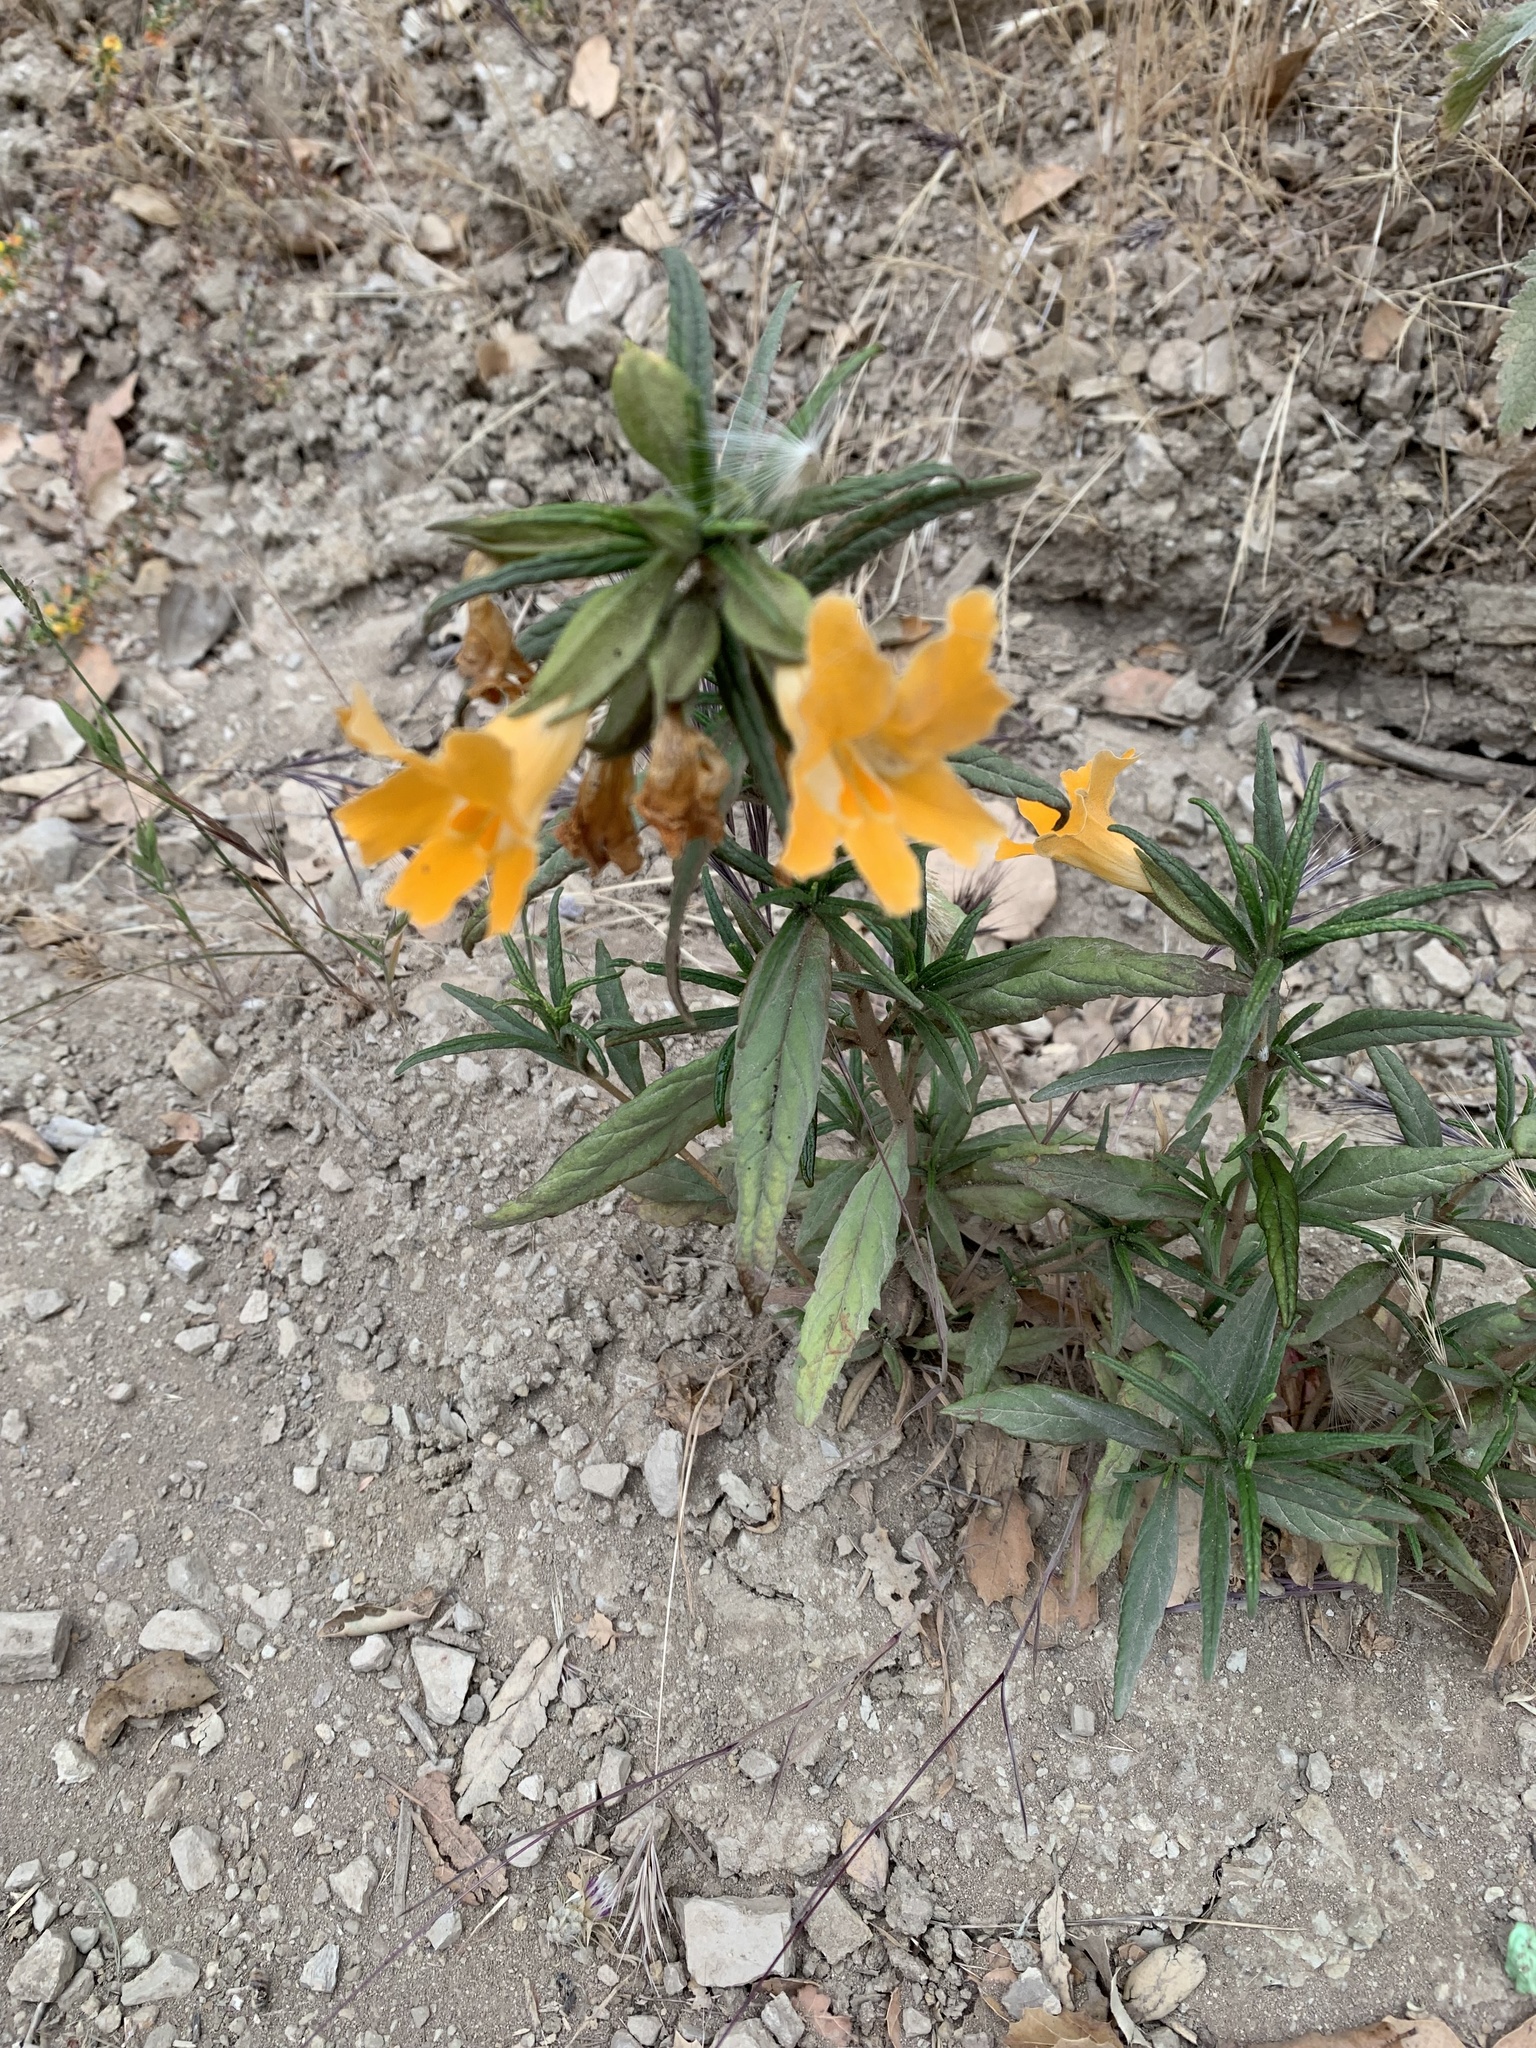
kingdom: Plantae
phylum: Tracheophyta
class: Magnoliopsida
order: Lamiales
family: Phrymaceae
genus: Diplacus
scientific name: Diplacus longiflorus
